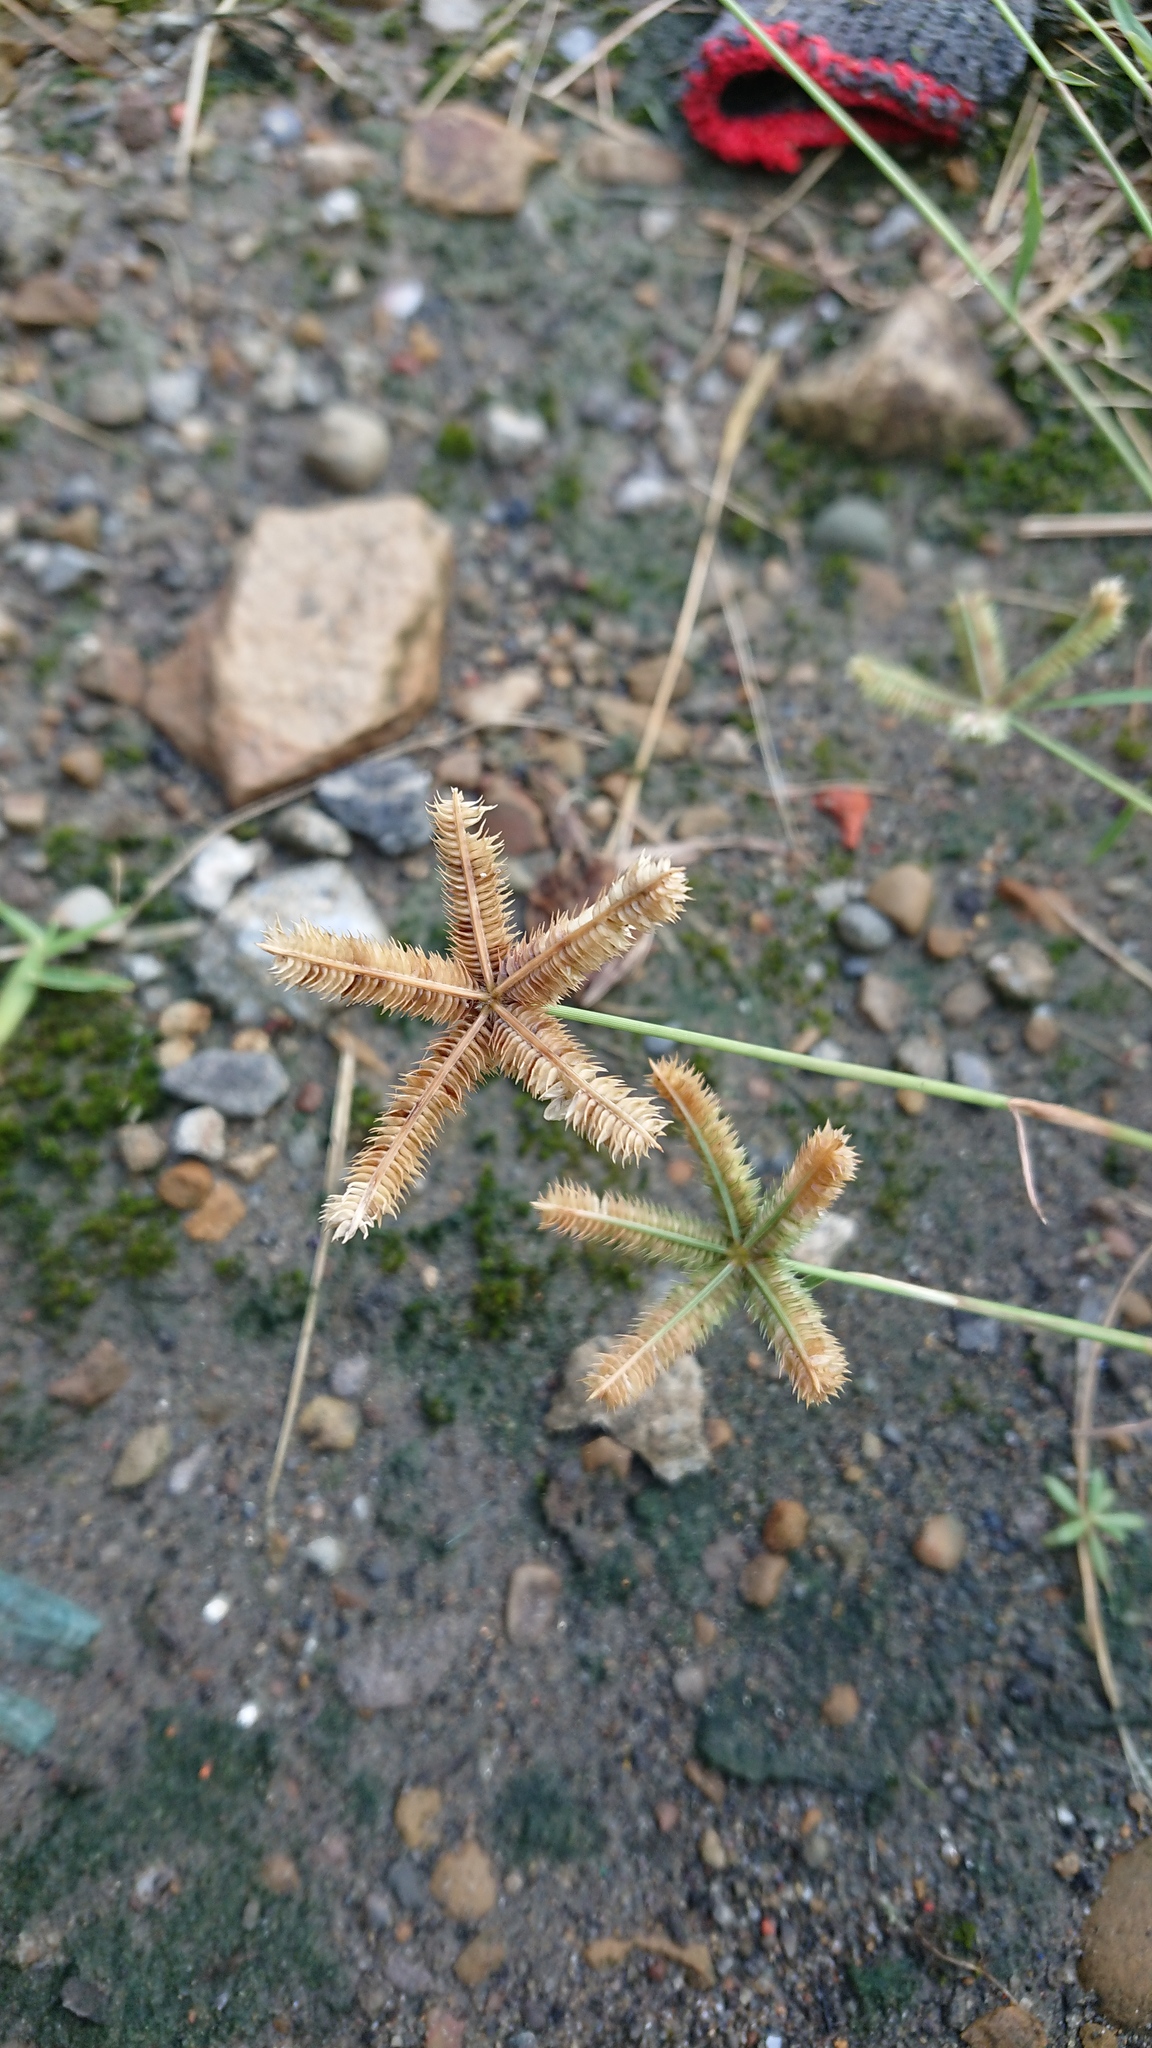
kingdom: Plantae
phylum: Tracheophyta
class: Liliopsida
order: Poales
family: Poaceae
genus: Dactyloctenium
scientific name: Dactyloctenium aegyptium
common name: Egyptian grass
